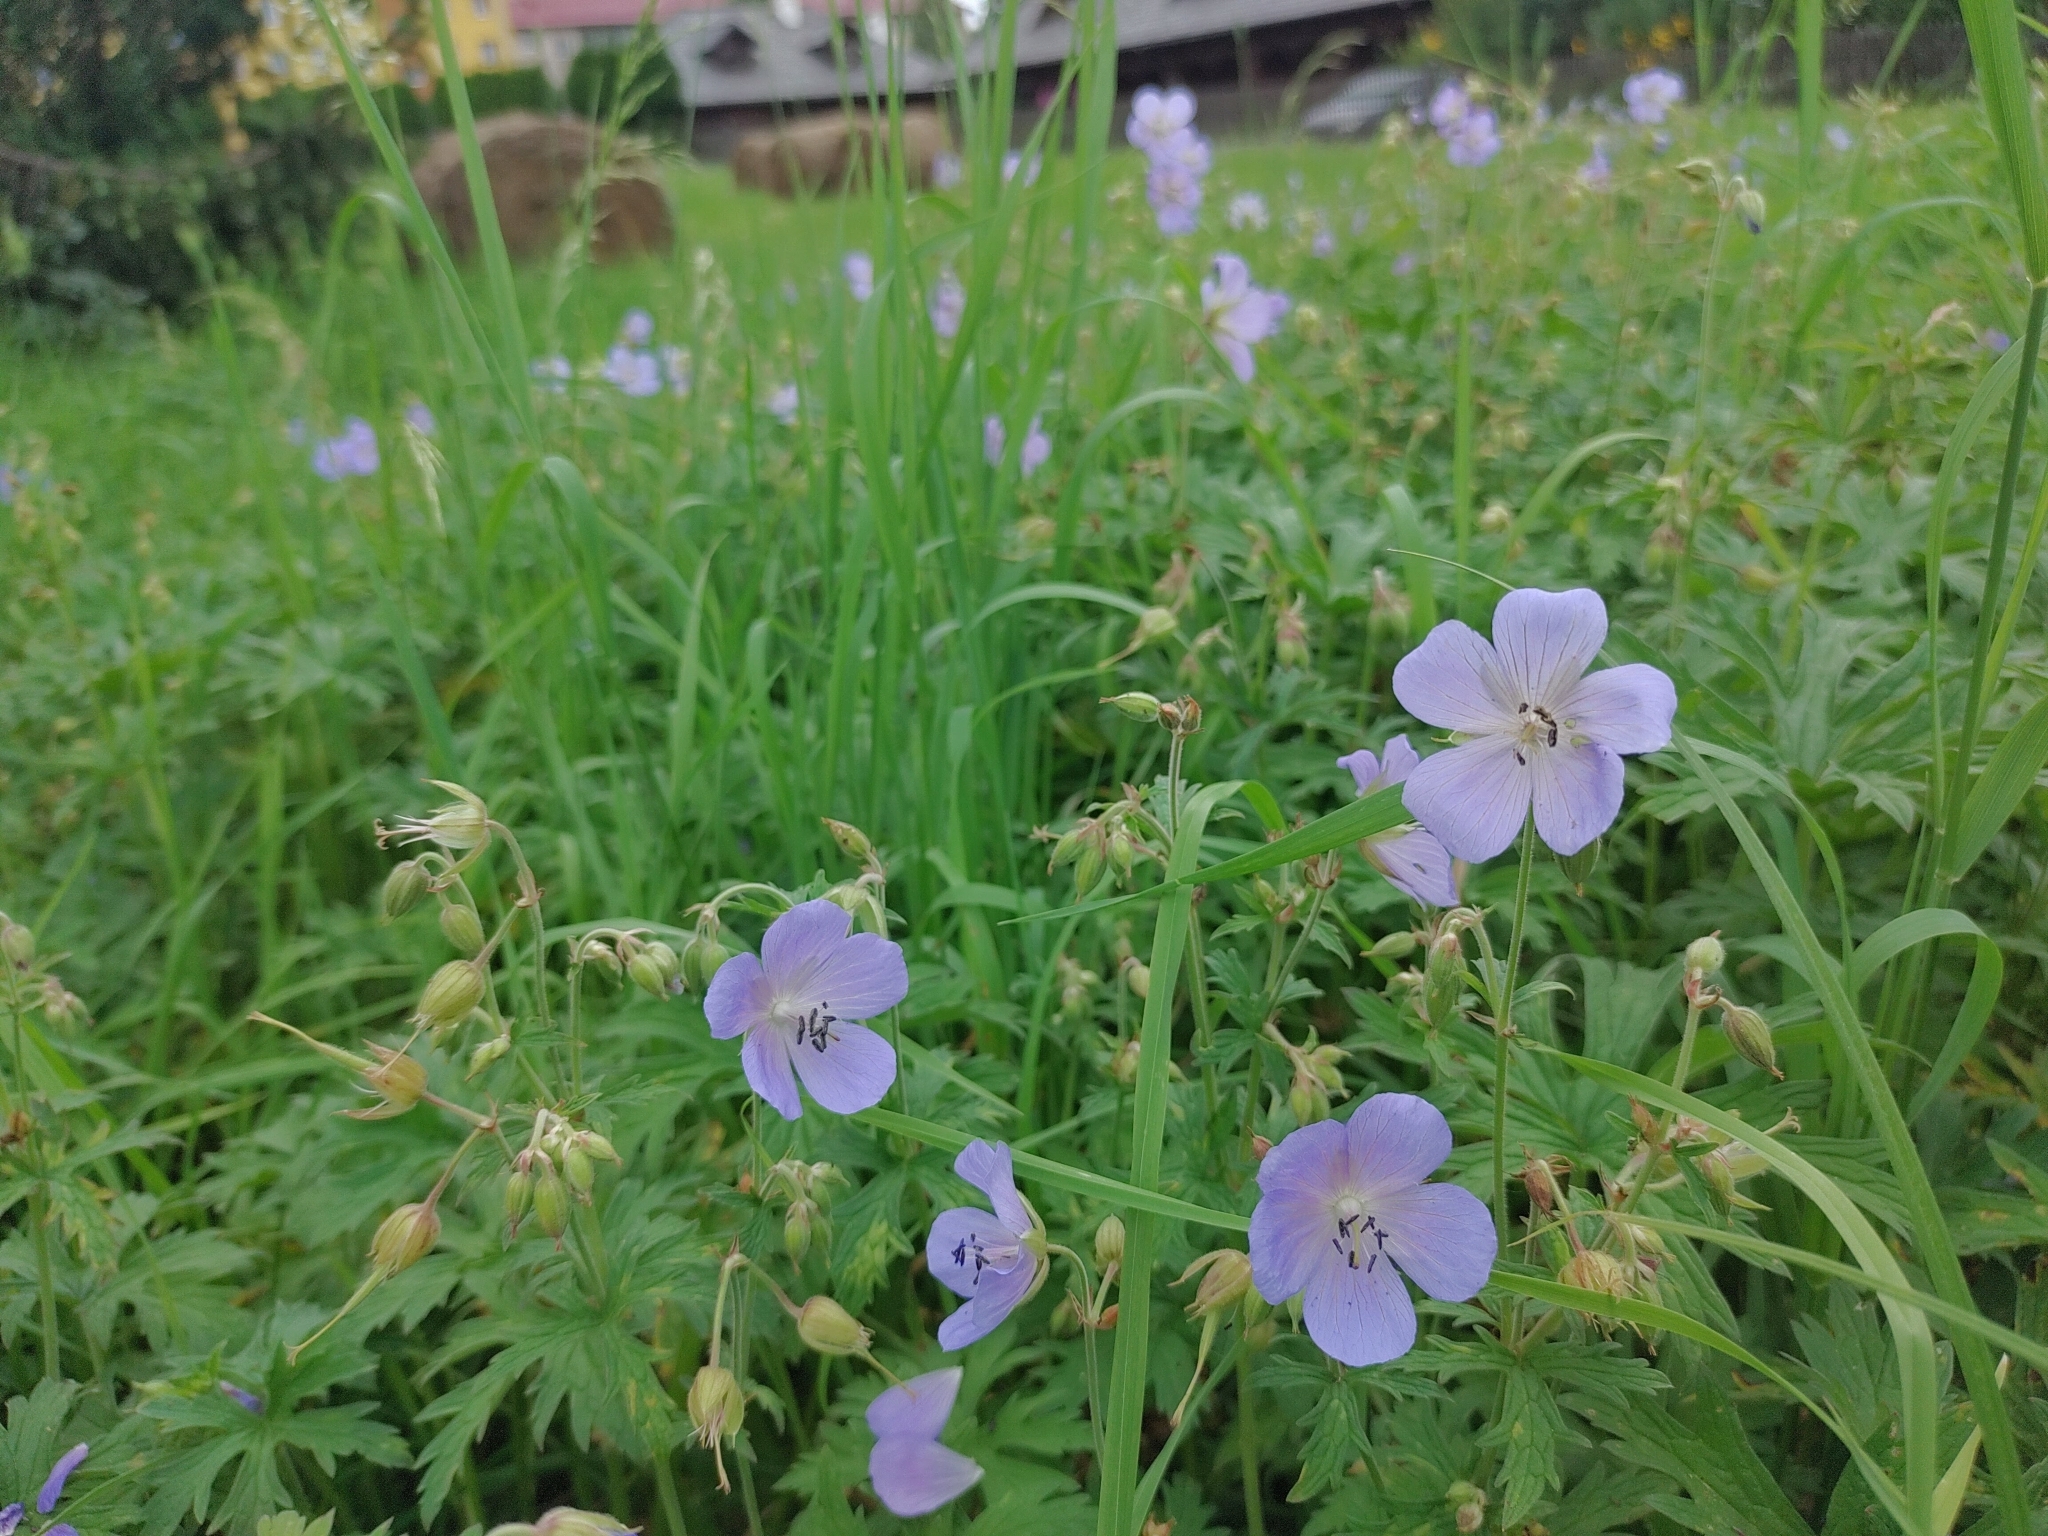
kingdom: Plantae
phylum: Tracheophyta
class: Magnoliopsida
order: Geraniales
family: Geraniaceae
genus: Geranium
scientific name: Geranium pratense
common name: Meadow crane's-bill
